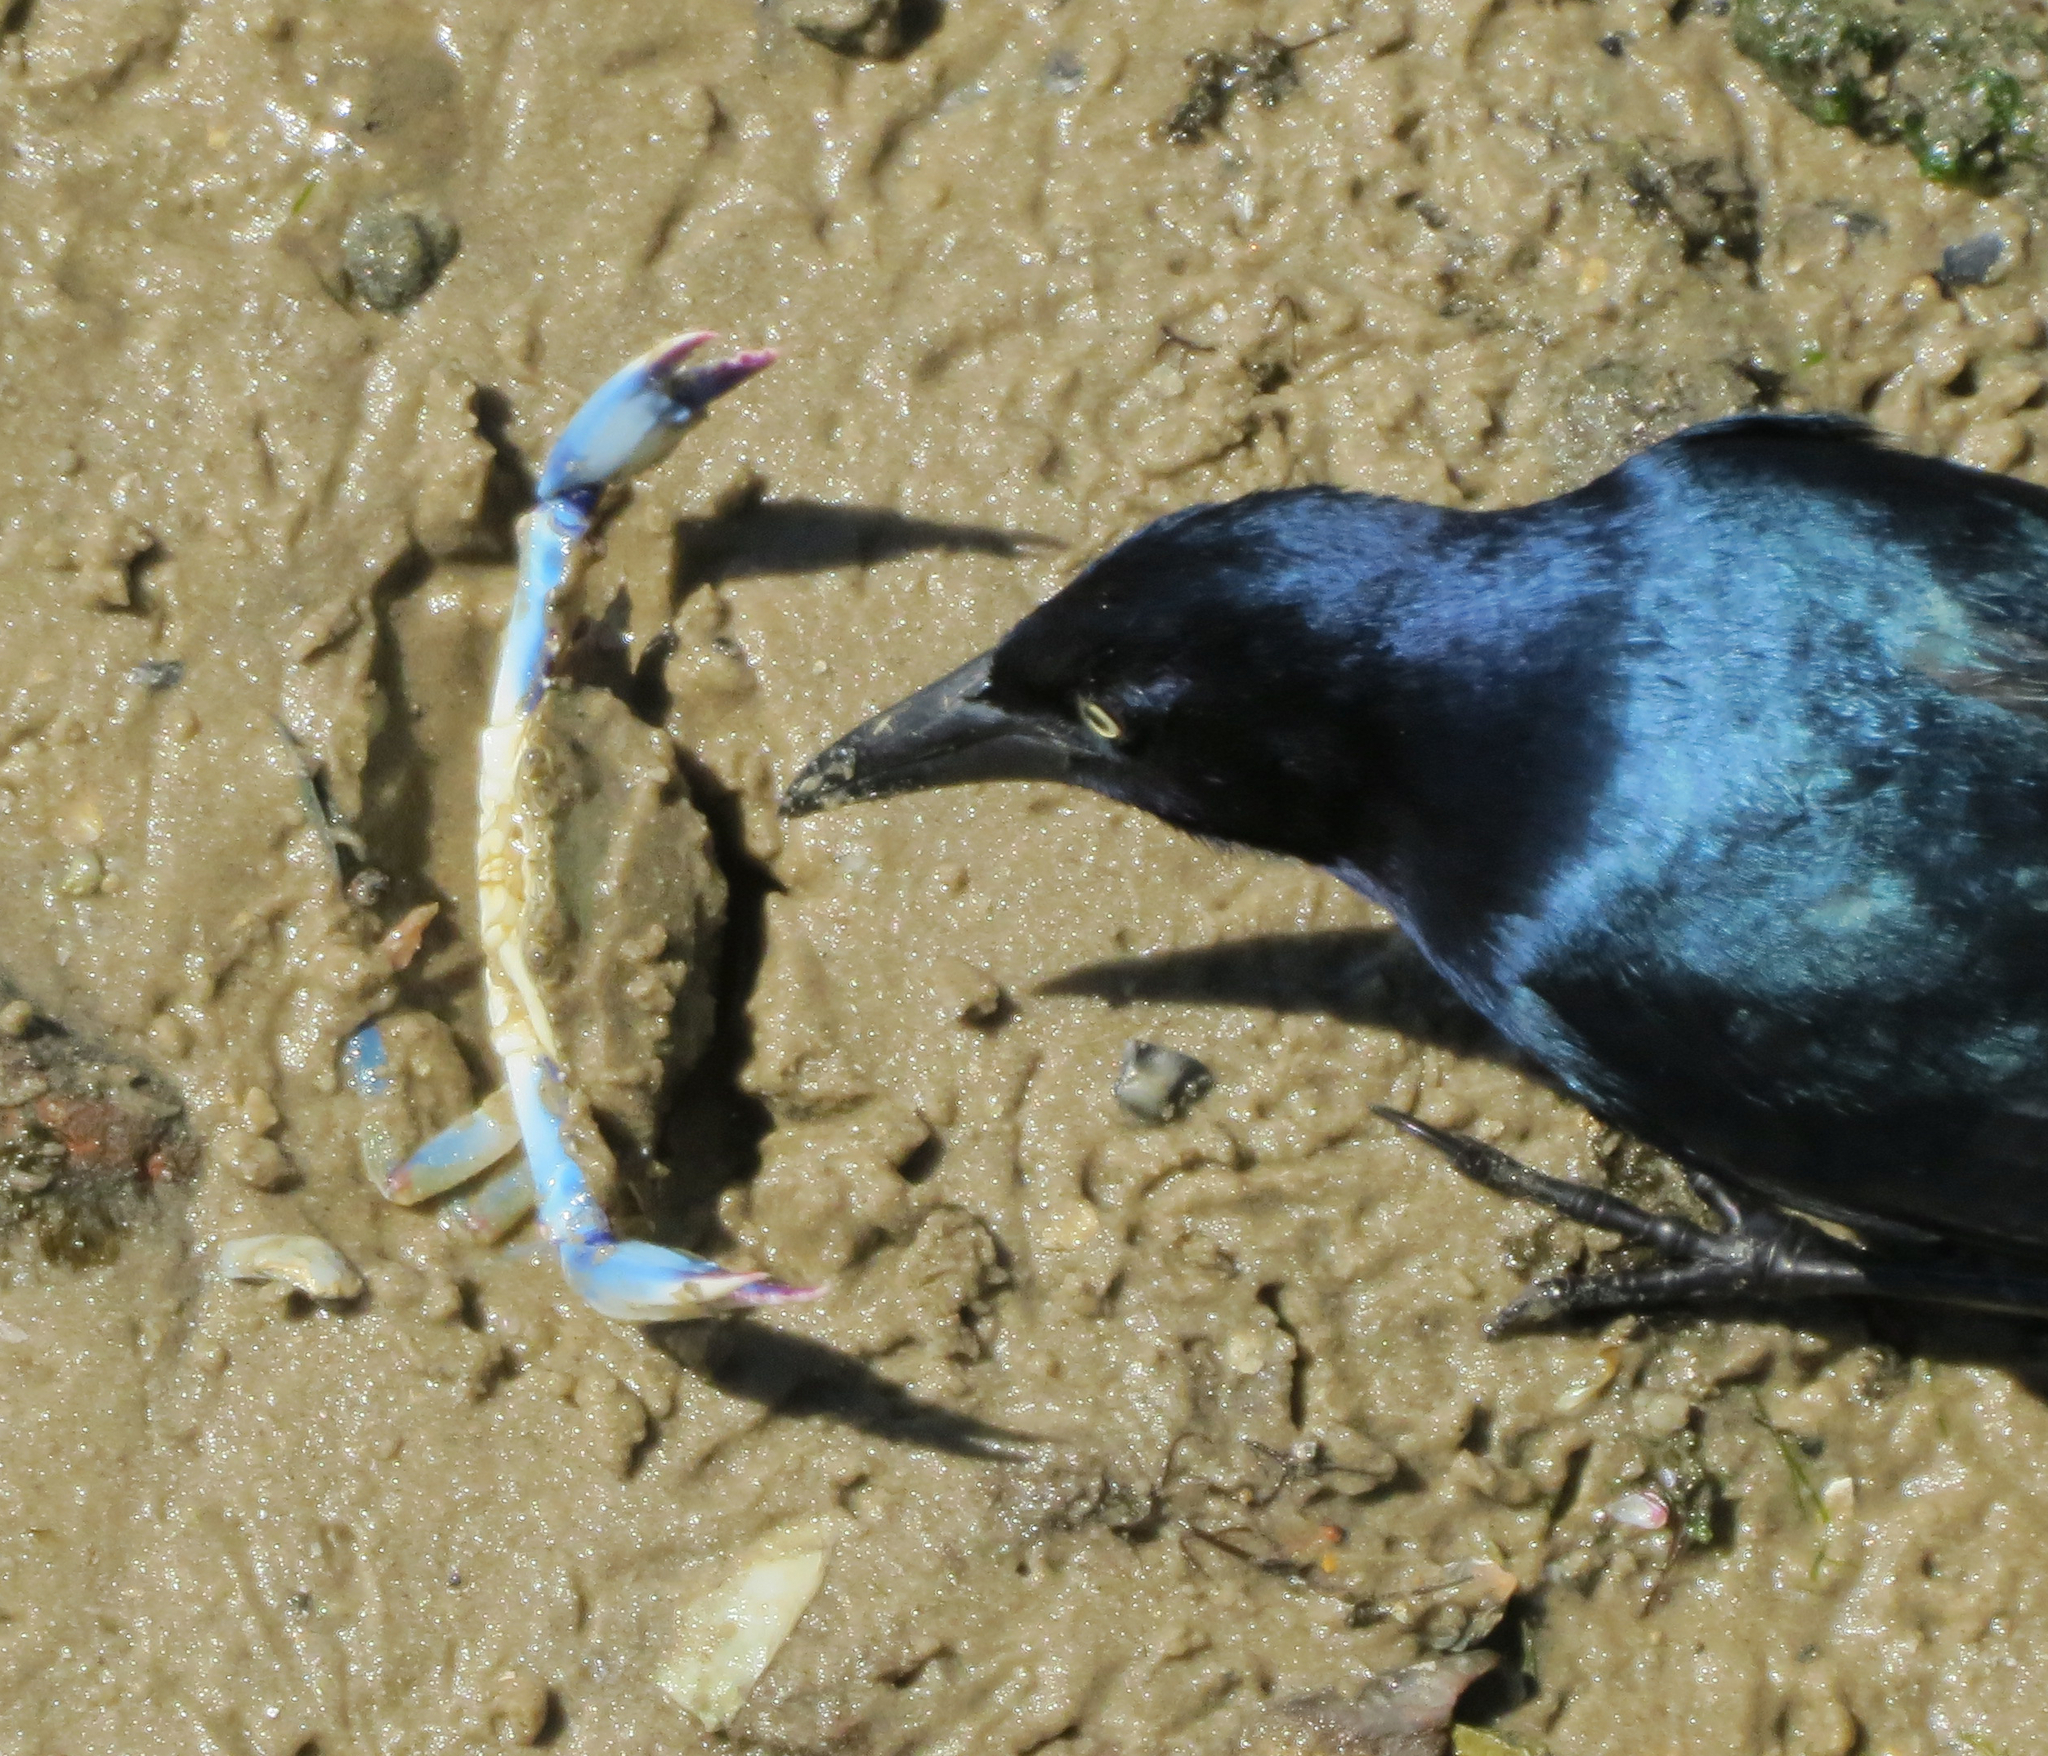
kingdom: Animalia
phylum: Arthropoda
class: Malacostraca
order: Decapoda
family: Portunidae
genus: Callinectes
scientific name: Callinectes sapidus
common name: Blue crab
